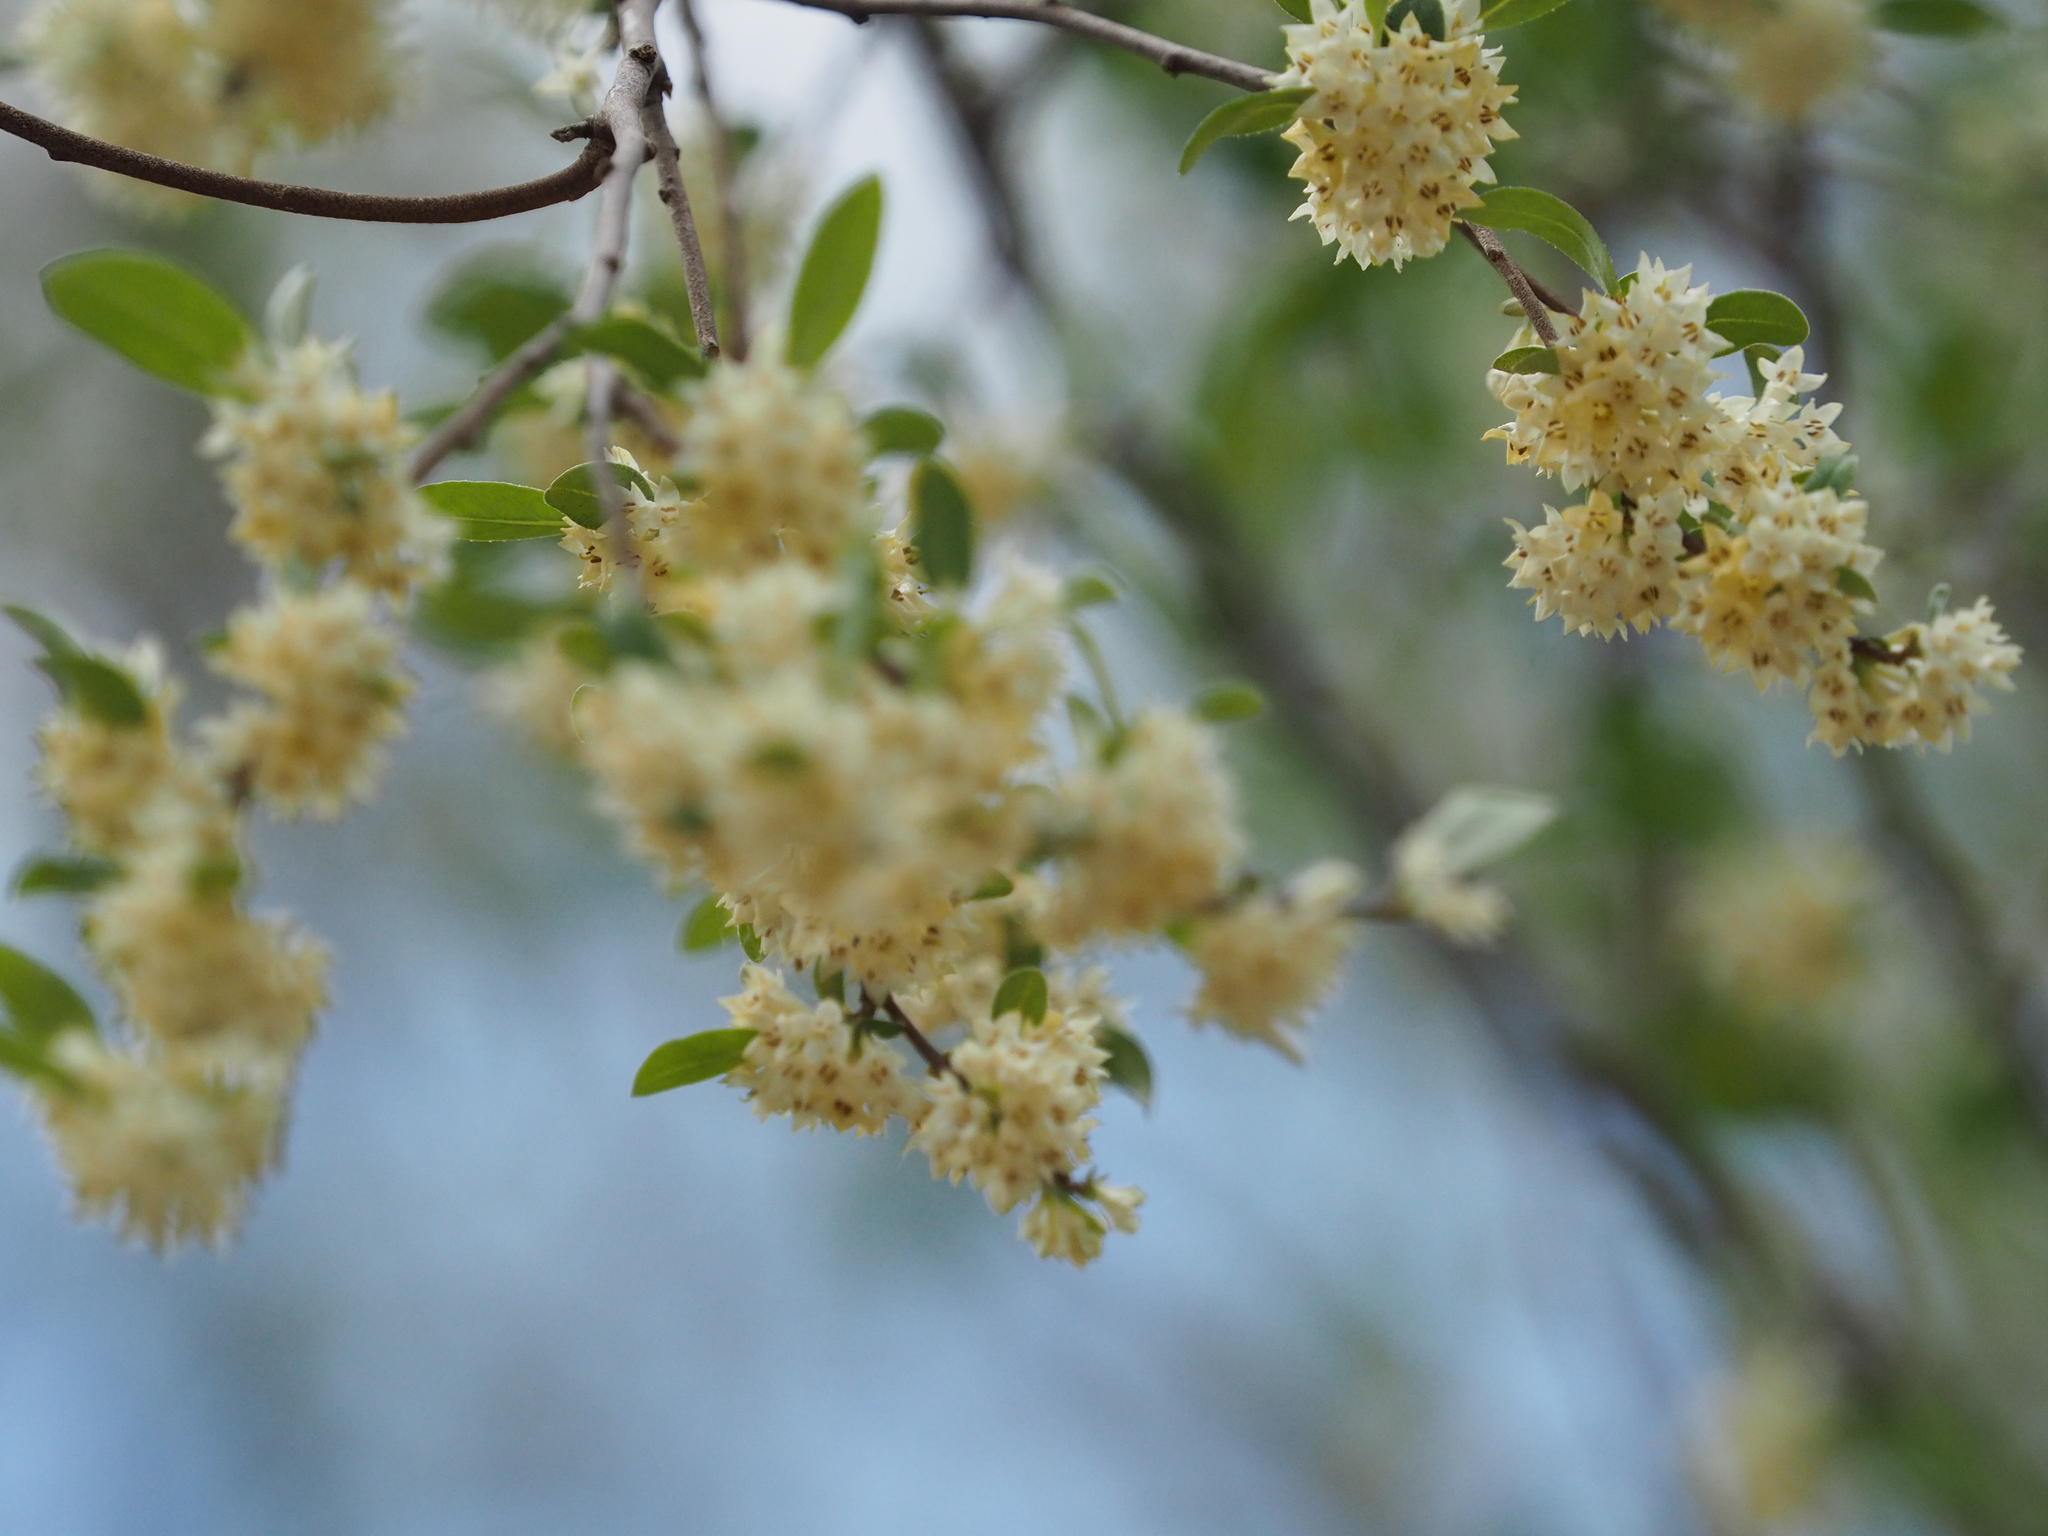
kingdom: Plantae
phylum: Tracheophyta
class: Magnoliopsida
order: Rosales
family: Elaeagnaceae
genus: Elaeagnus
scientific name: Elaeagnus umbellata
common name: Autumn olive
